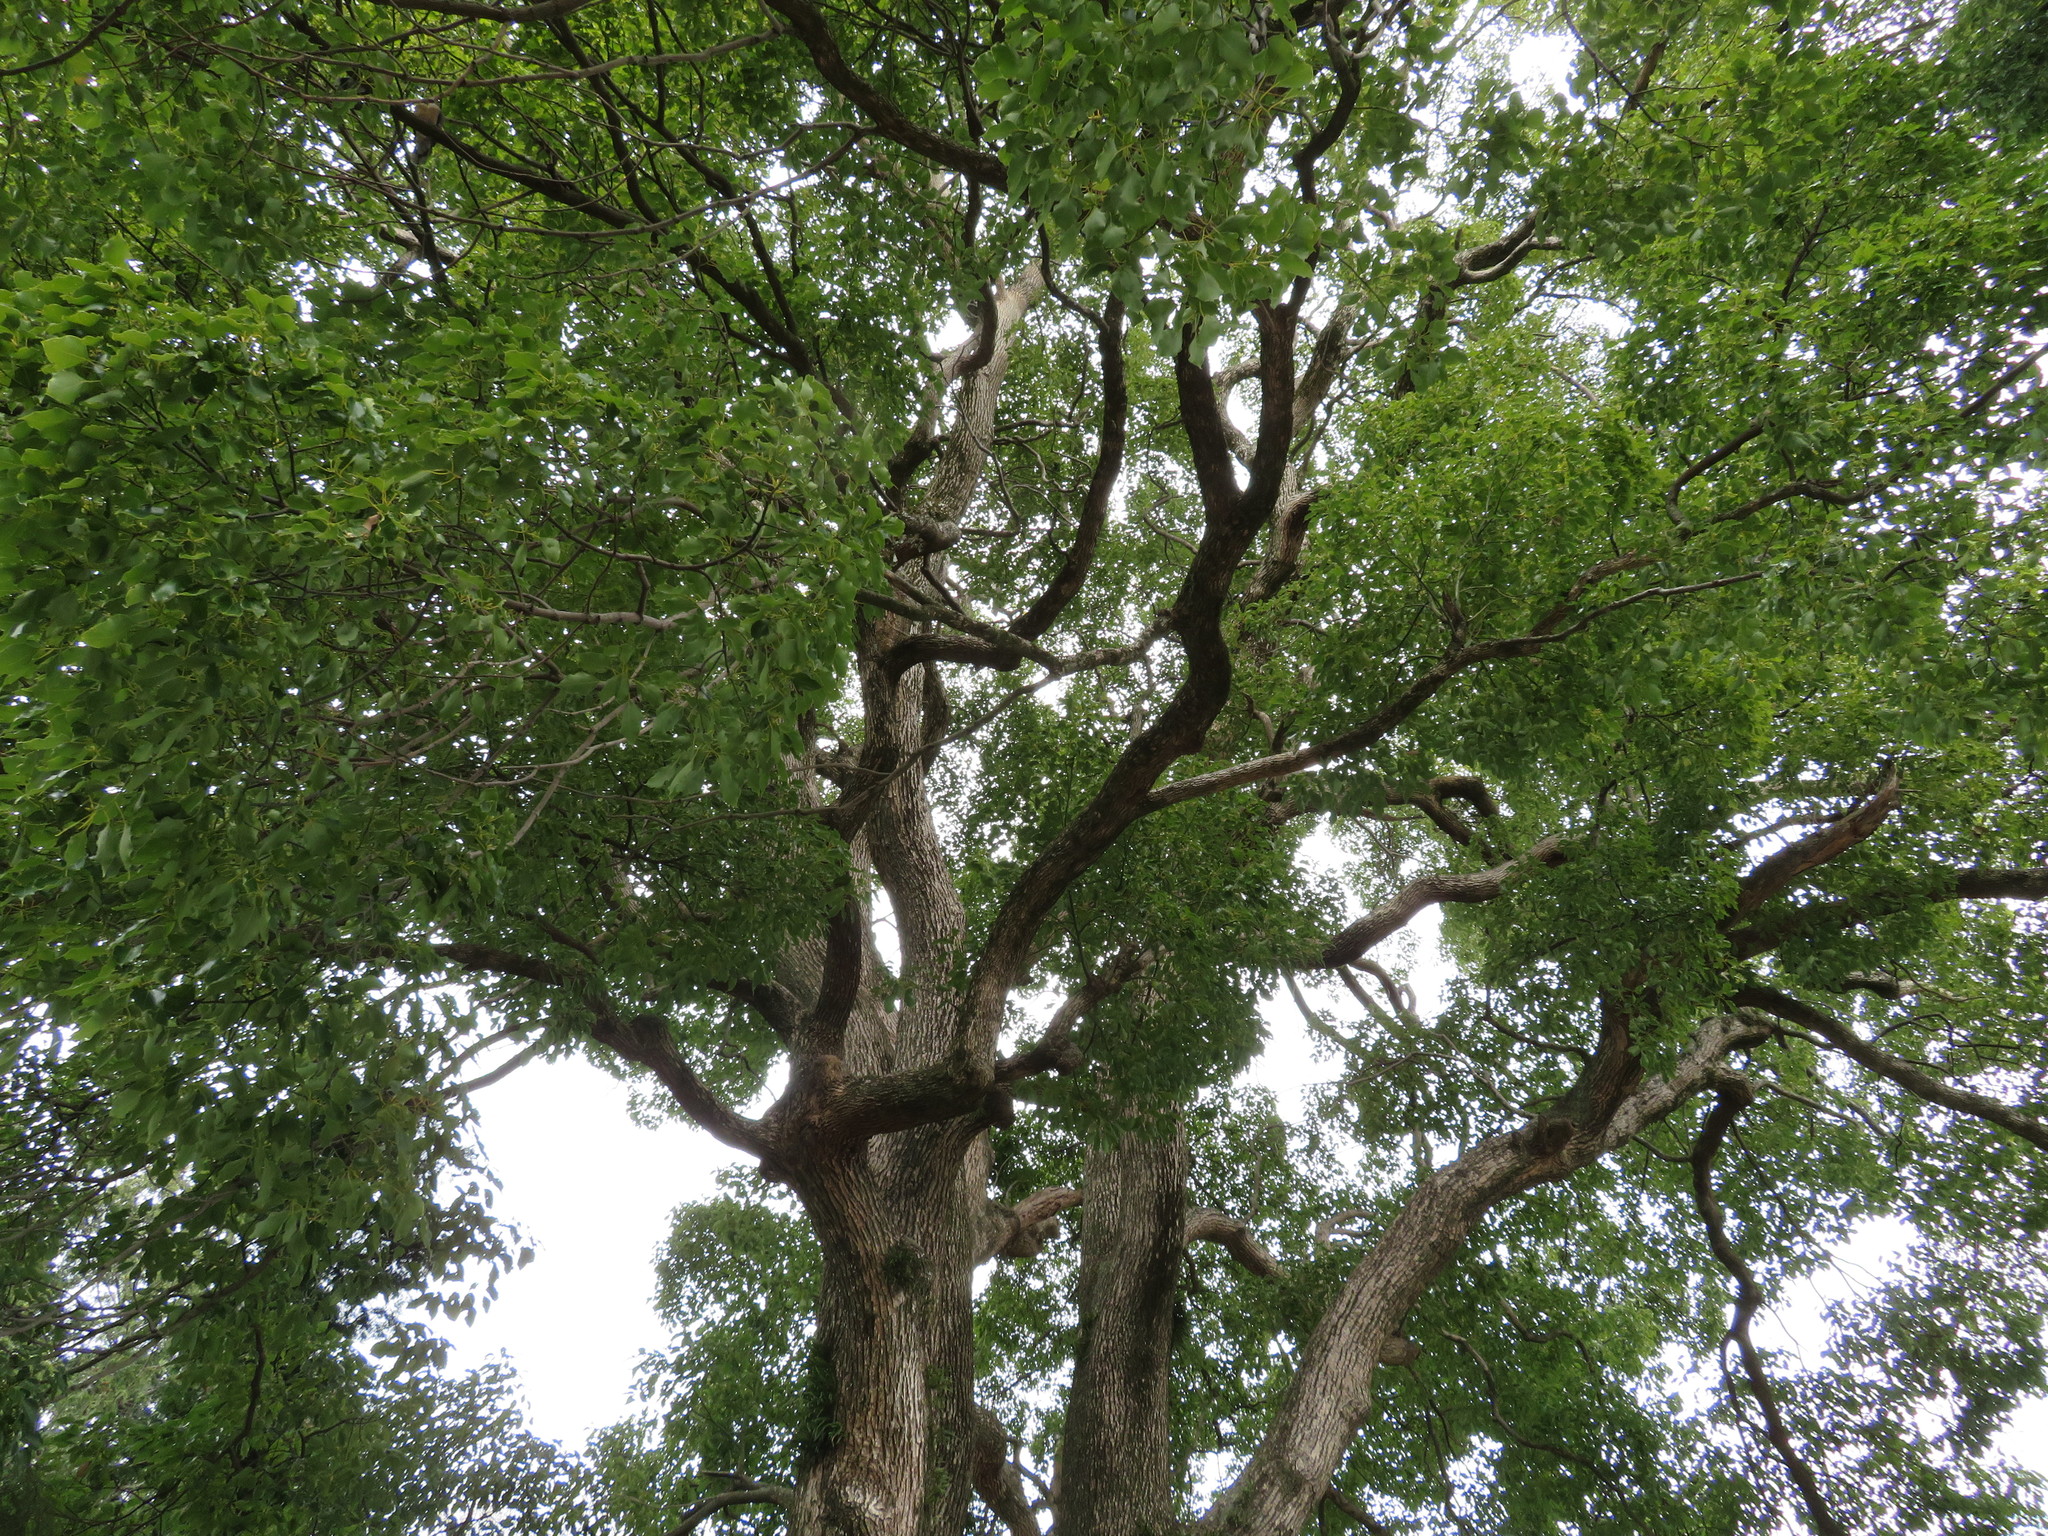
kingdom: Plantae
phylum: Tracheophyta
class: Magnoliopsida
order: Laurales
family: Lauraceae
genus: Cinnamomum
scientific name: Cinnamomum camphora
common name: Camphortree
